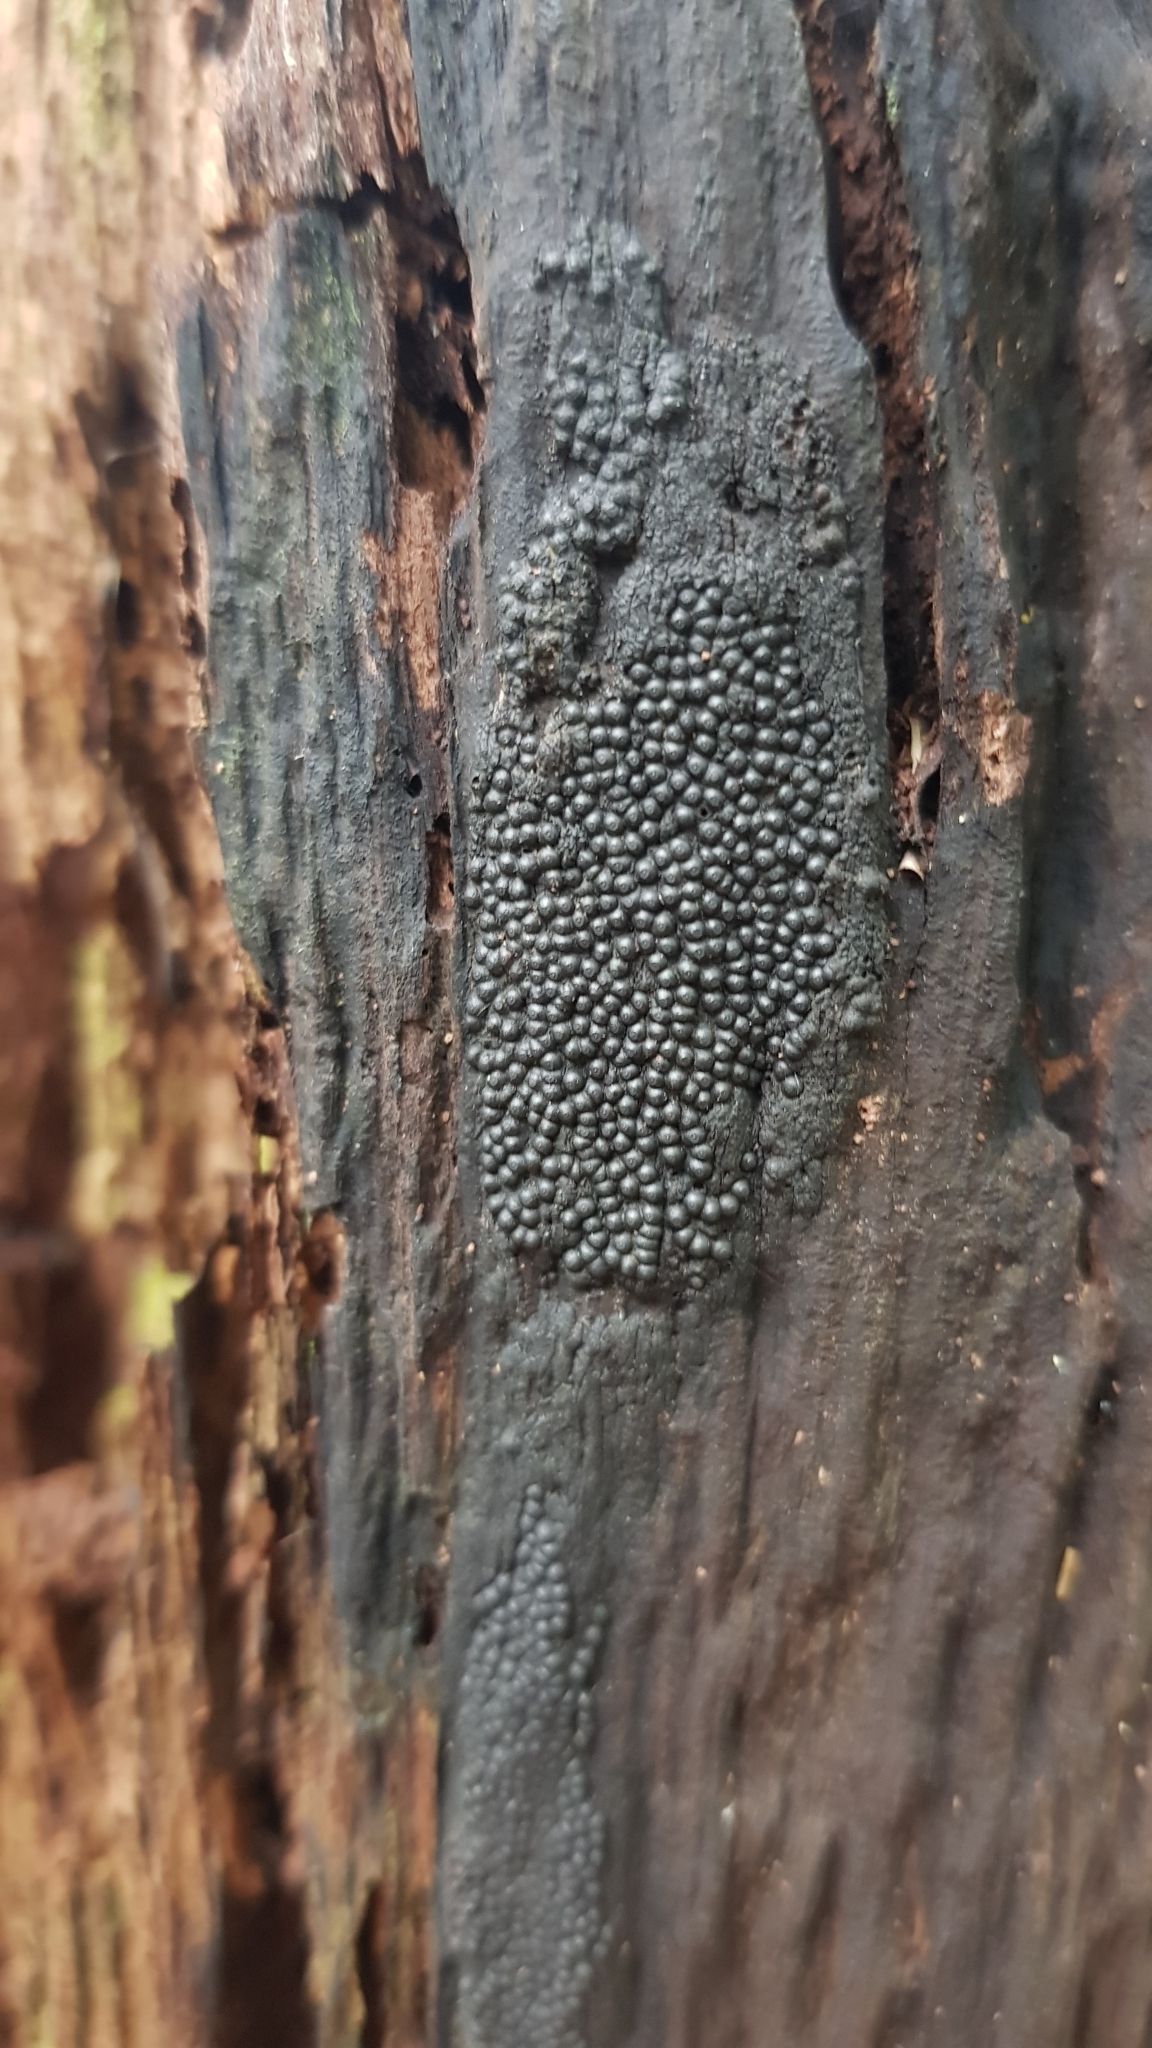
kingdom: Fungi
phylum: Ascomycota
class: Sordariomycetes
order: Xylariales
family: Hypoxylaceae
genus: Annulohypoxylon
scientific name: Annulohypoxylon bovei
